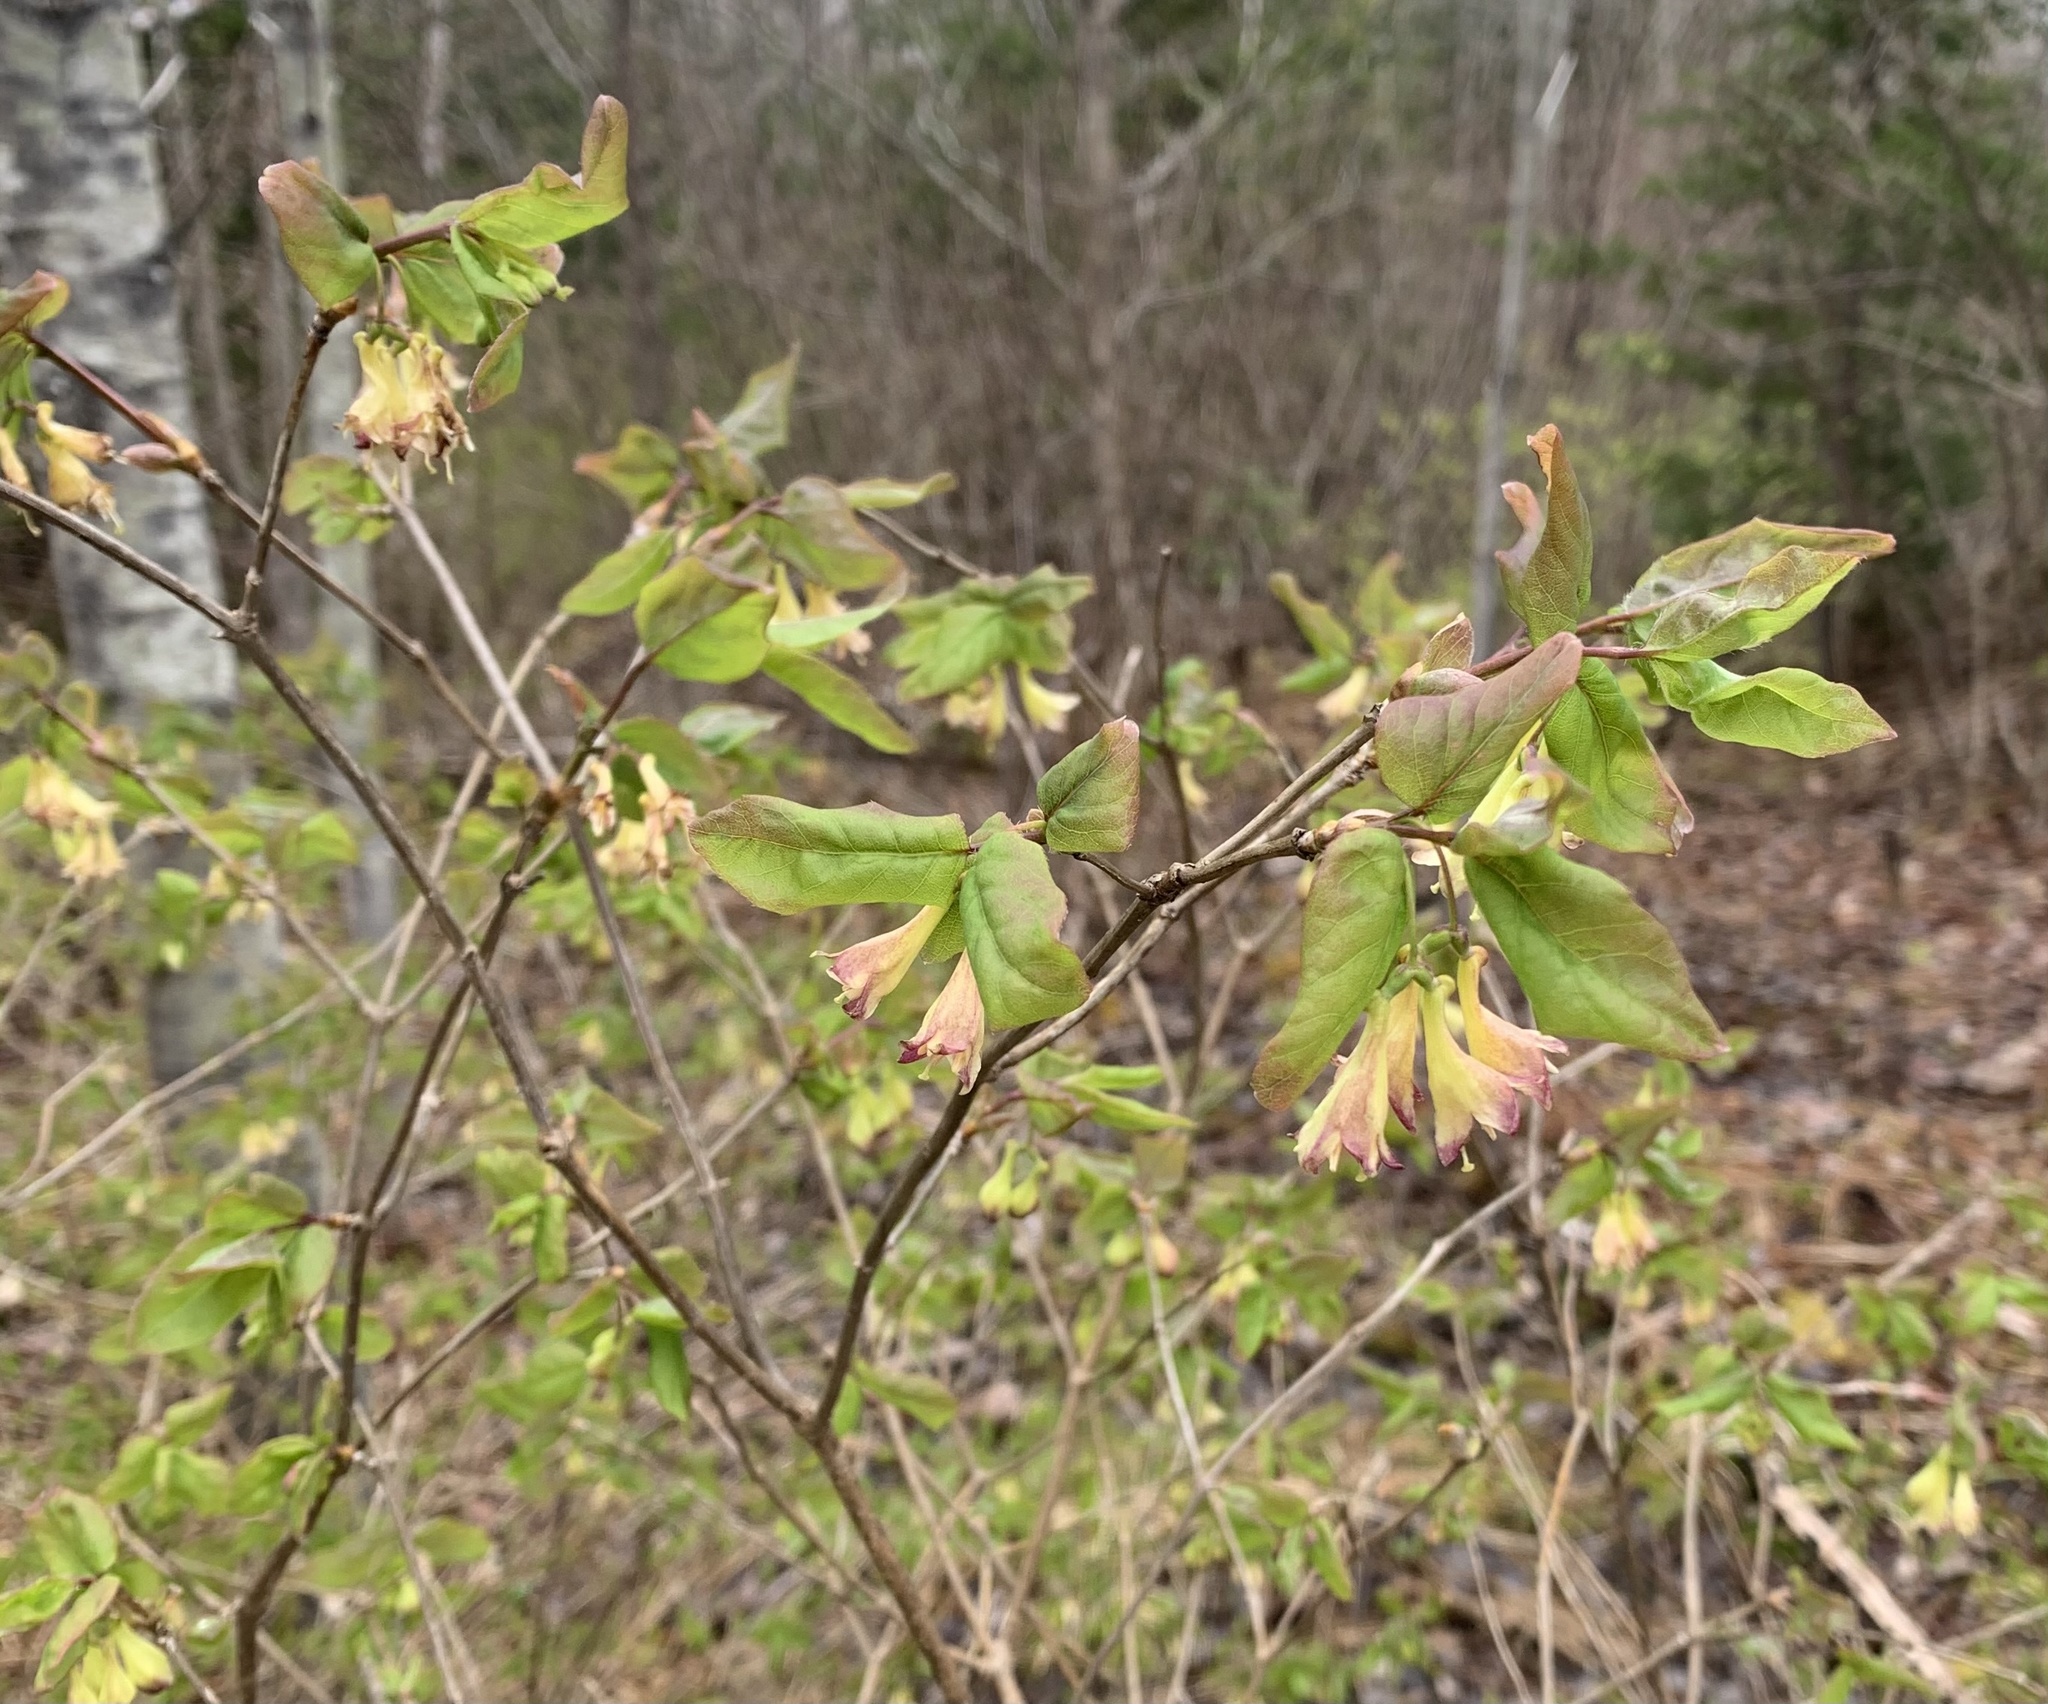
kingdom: Plantae
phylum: Tracheophyta
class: Magnoliopsida
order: Dipsacales
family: Caprifoliaceae
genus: Lonicera
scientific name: Lonicera canadensis
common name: American fly-honeysuckle
